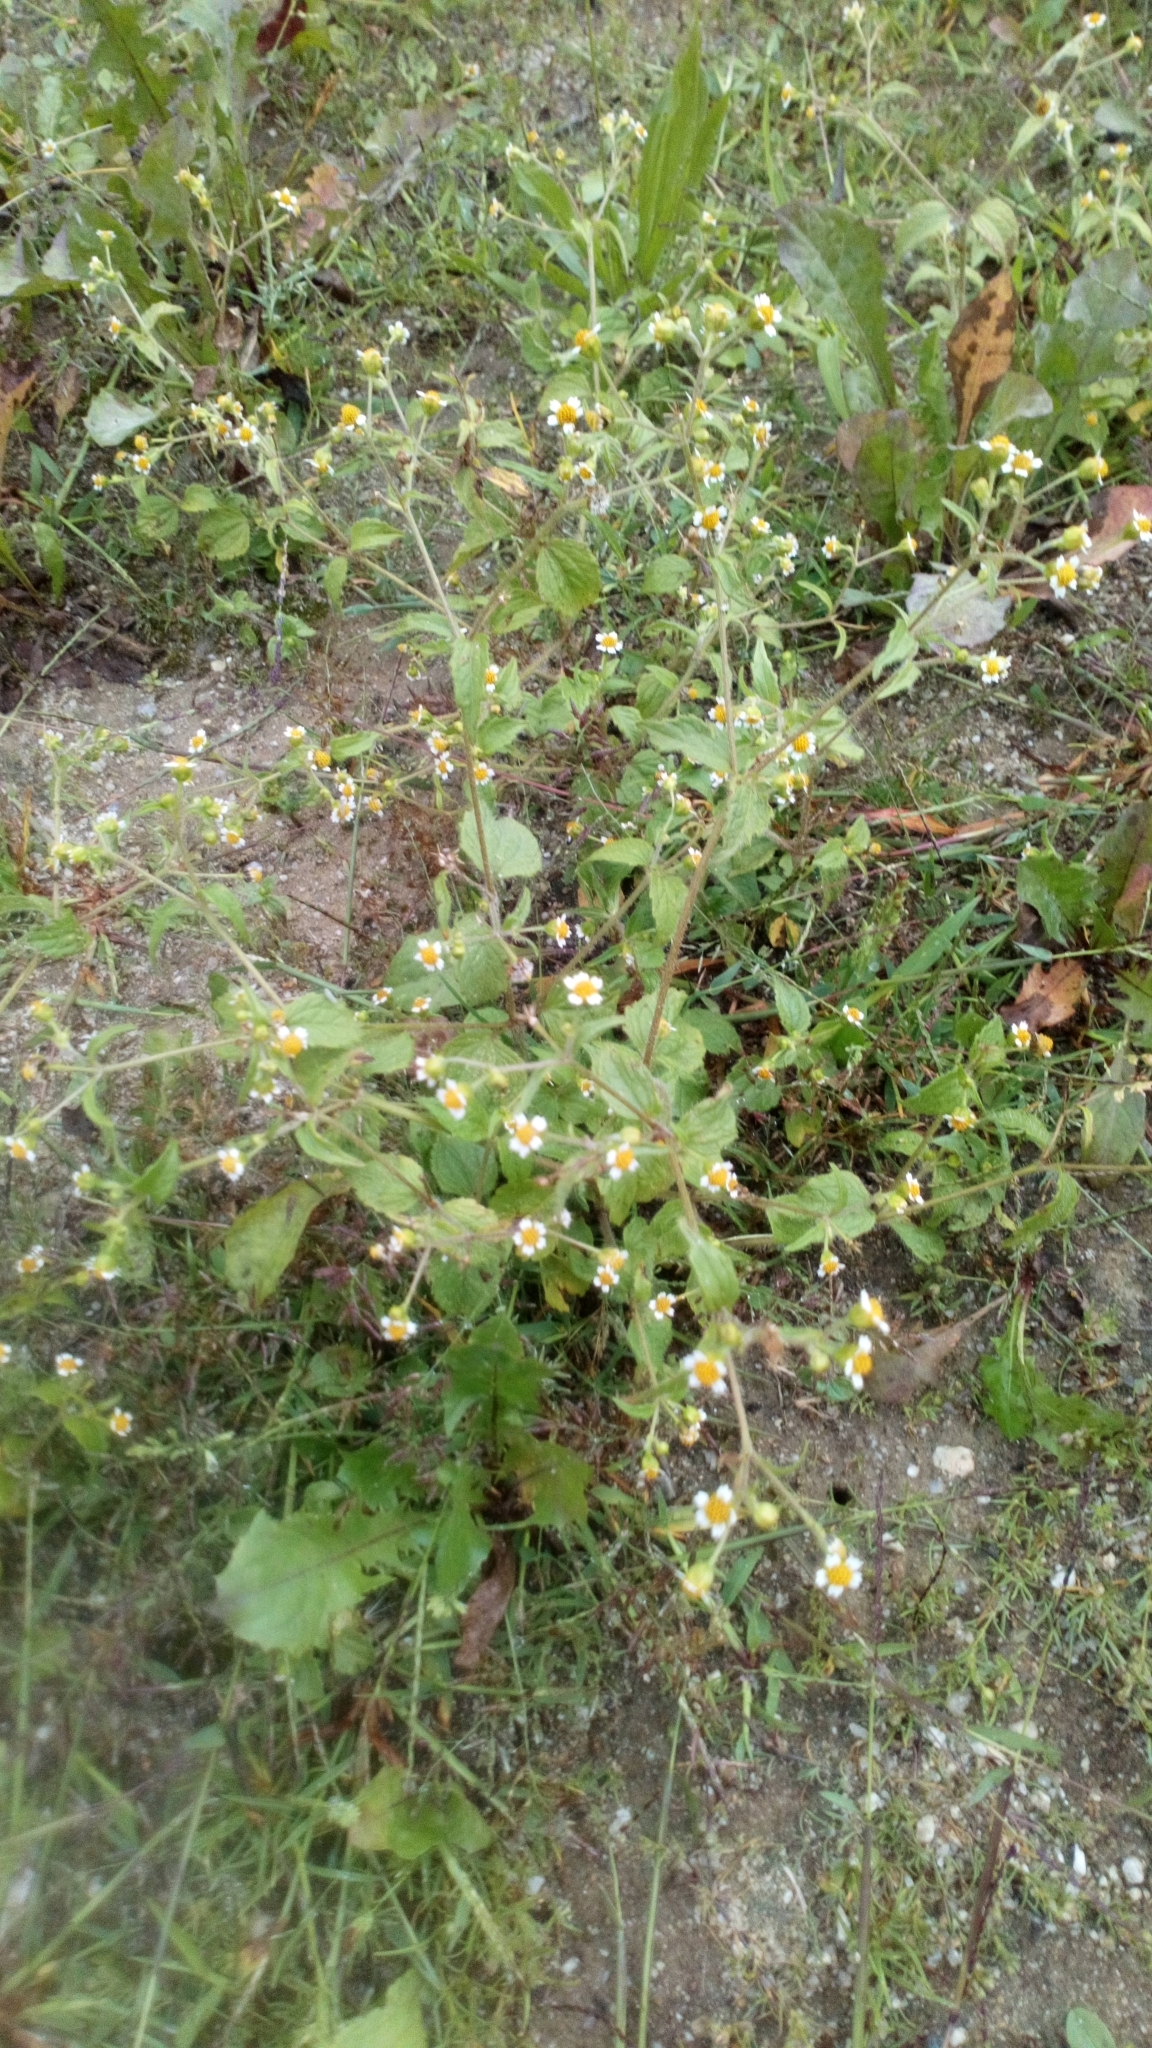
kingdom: Plantae
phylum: Tracheophyta
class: Magnoliopsida
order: Asterales
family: Asteraceae
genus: Galinsoga
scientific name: Galinsoga quadriradiata
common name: Shaggy soldier
